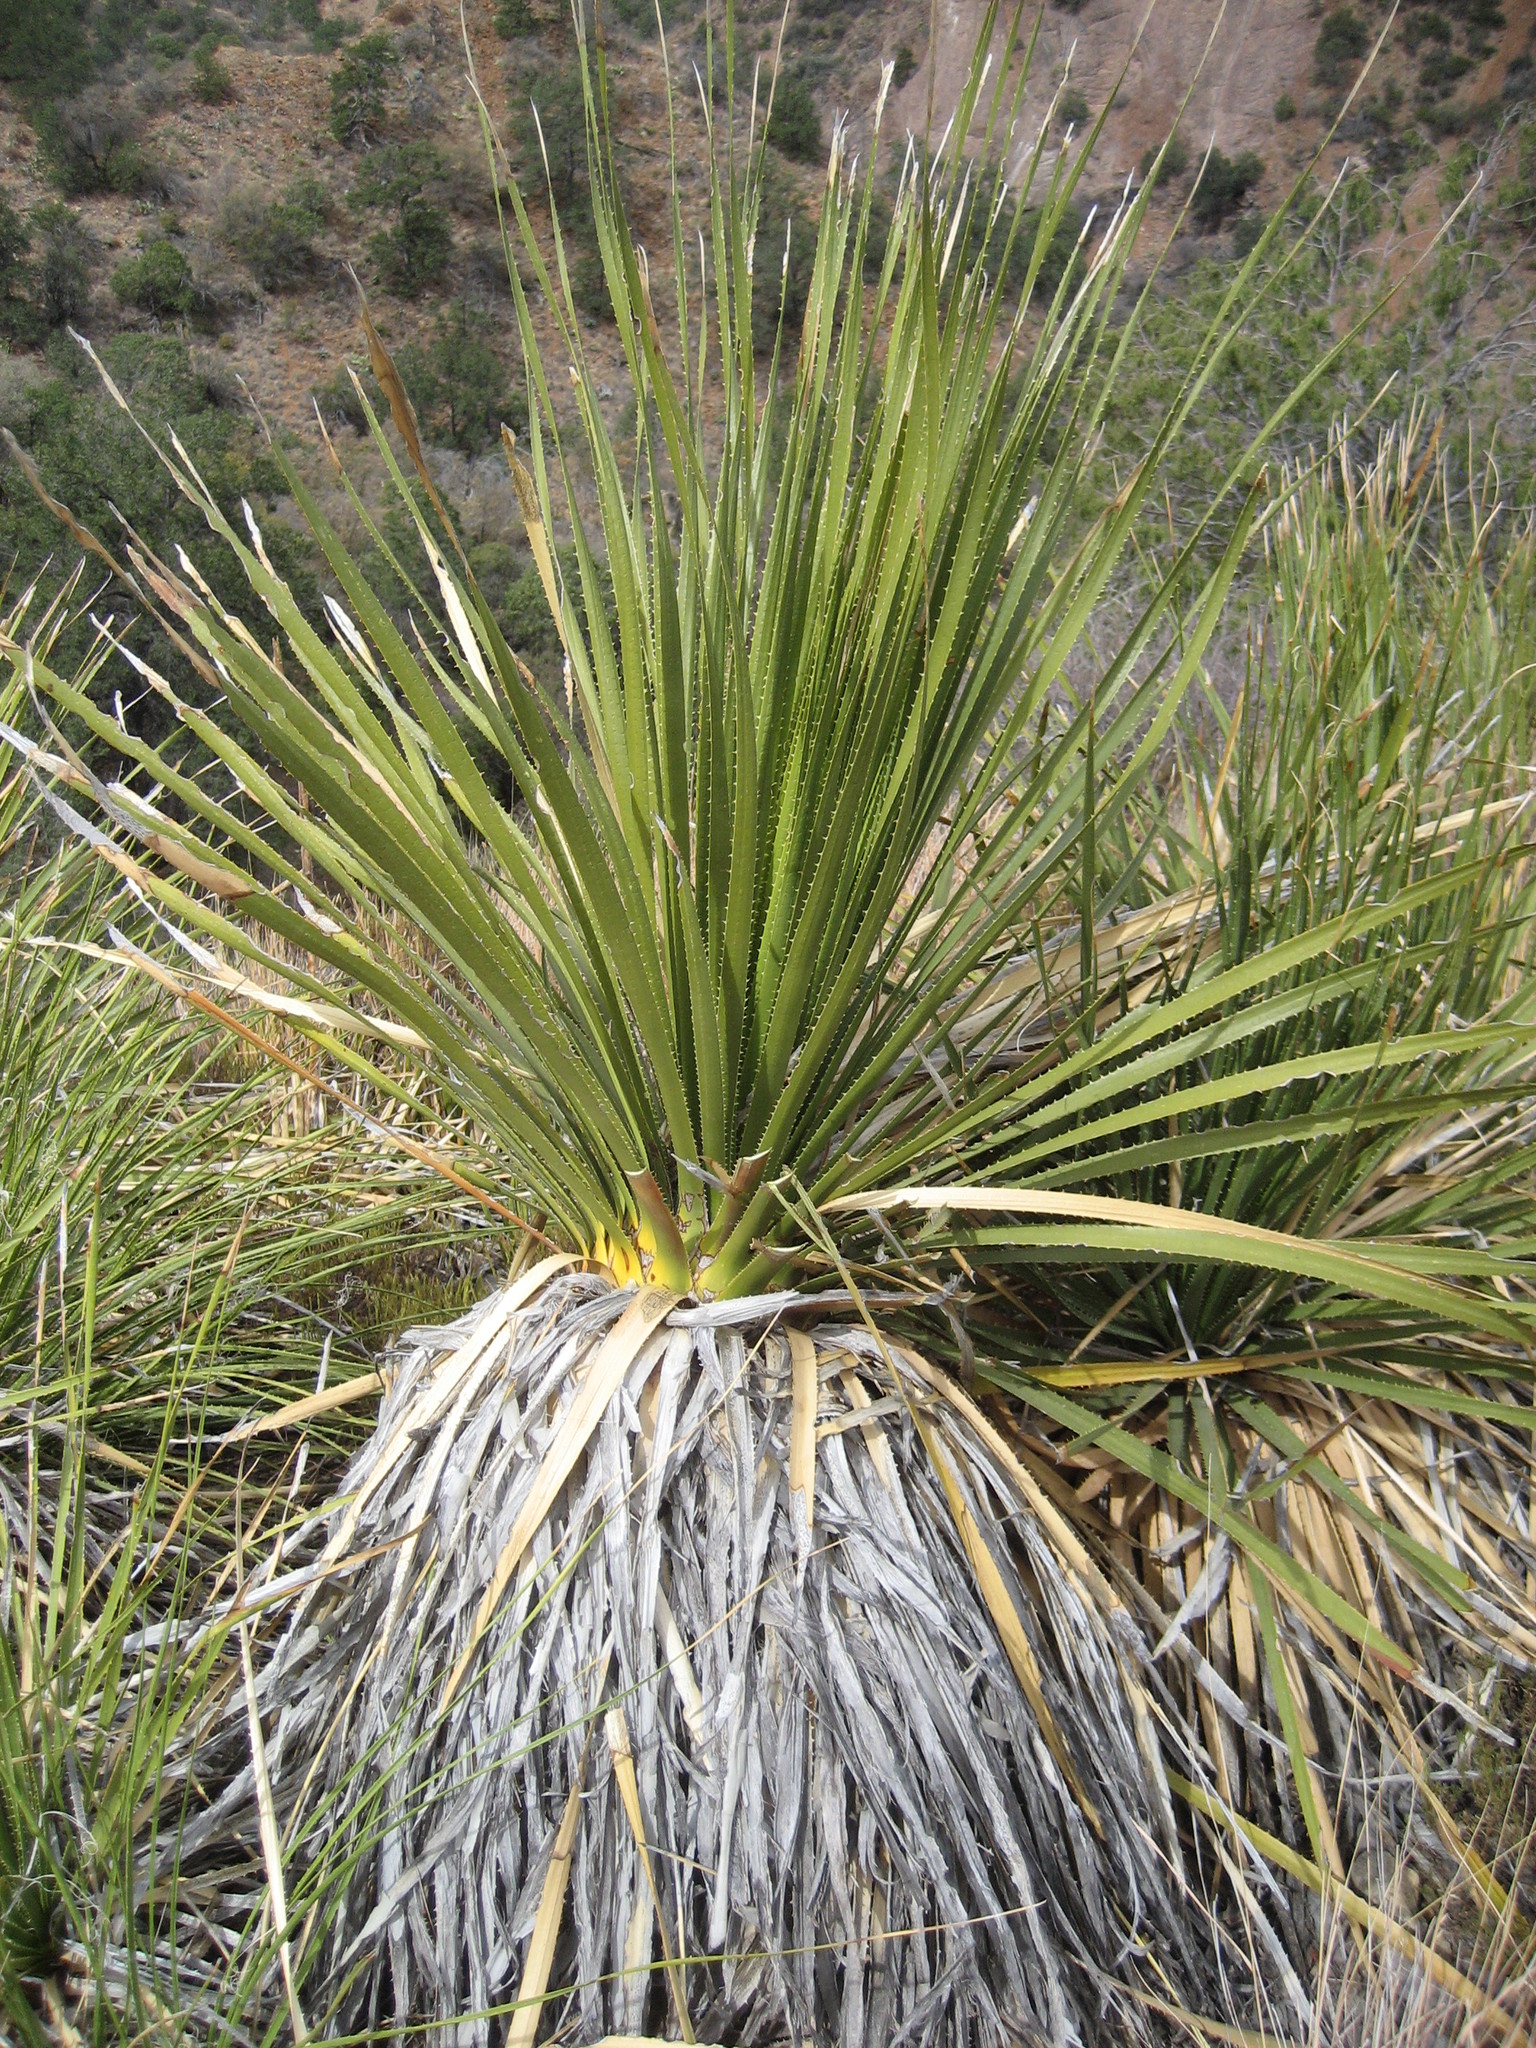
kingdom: Plantae
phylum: Tracheophyta
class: Liliopsida
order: Asparagales
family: Asparagaceae
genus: Dasylirion
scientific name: Dasylirion leiophyllum
